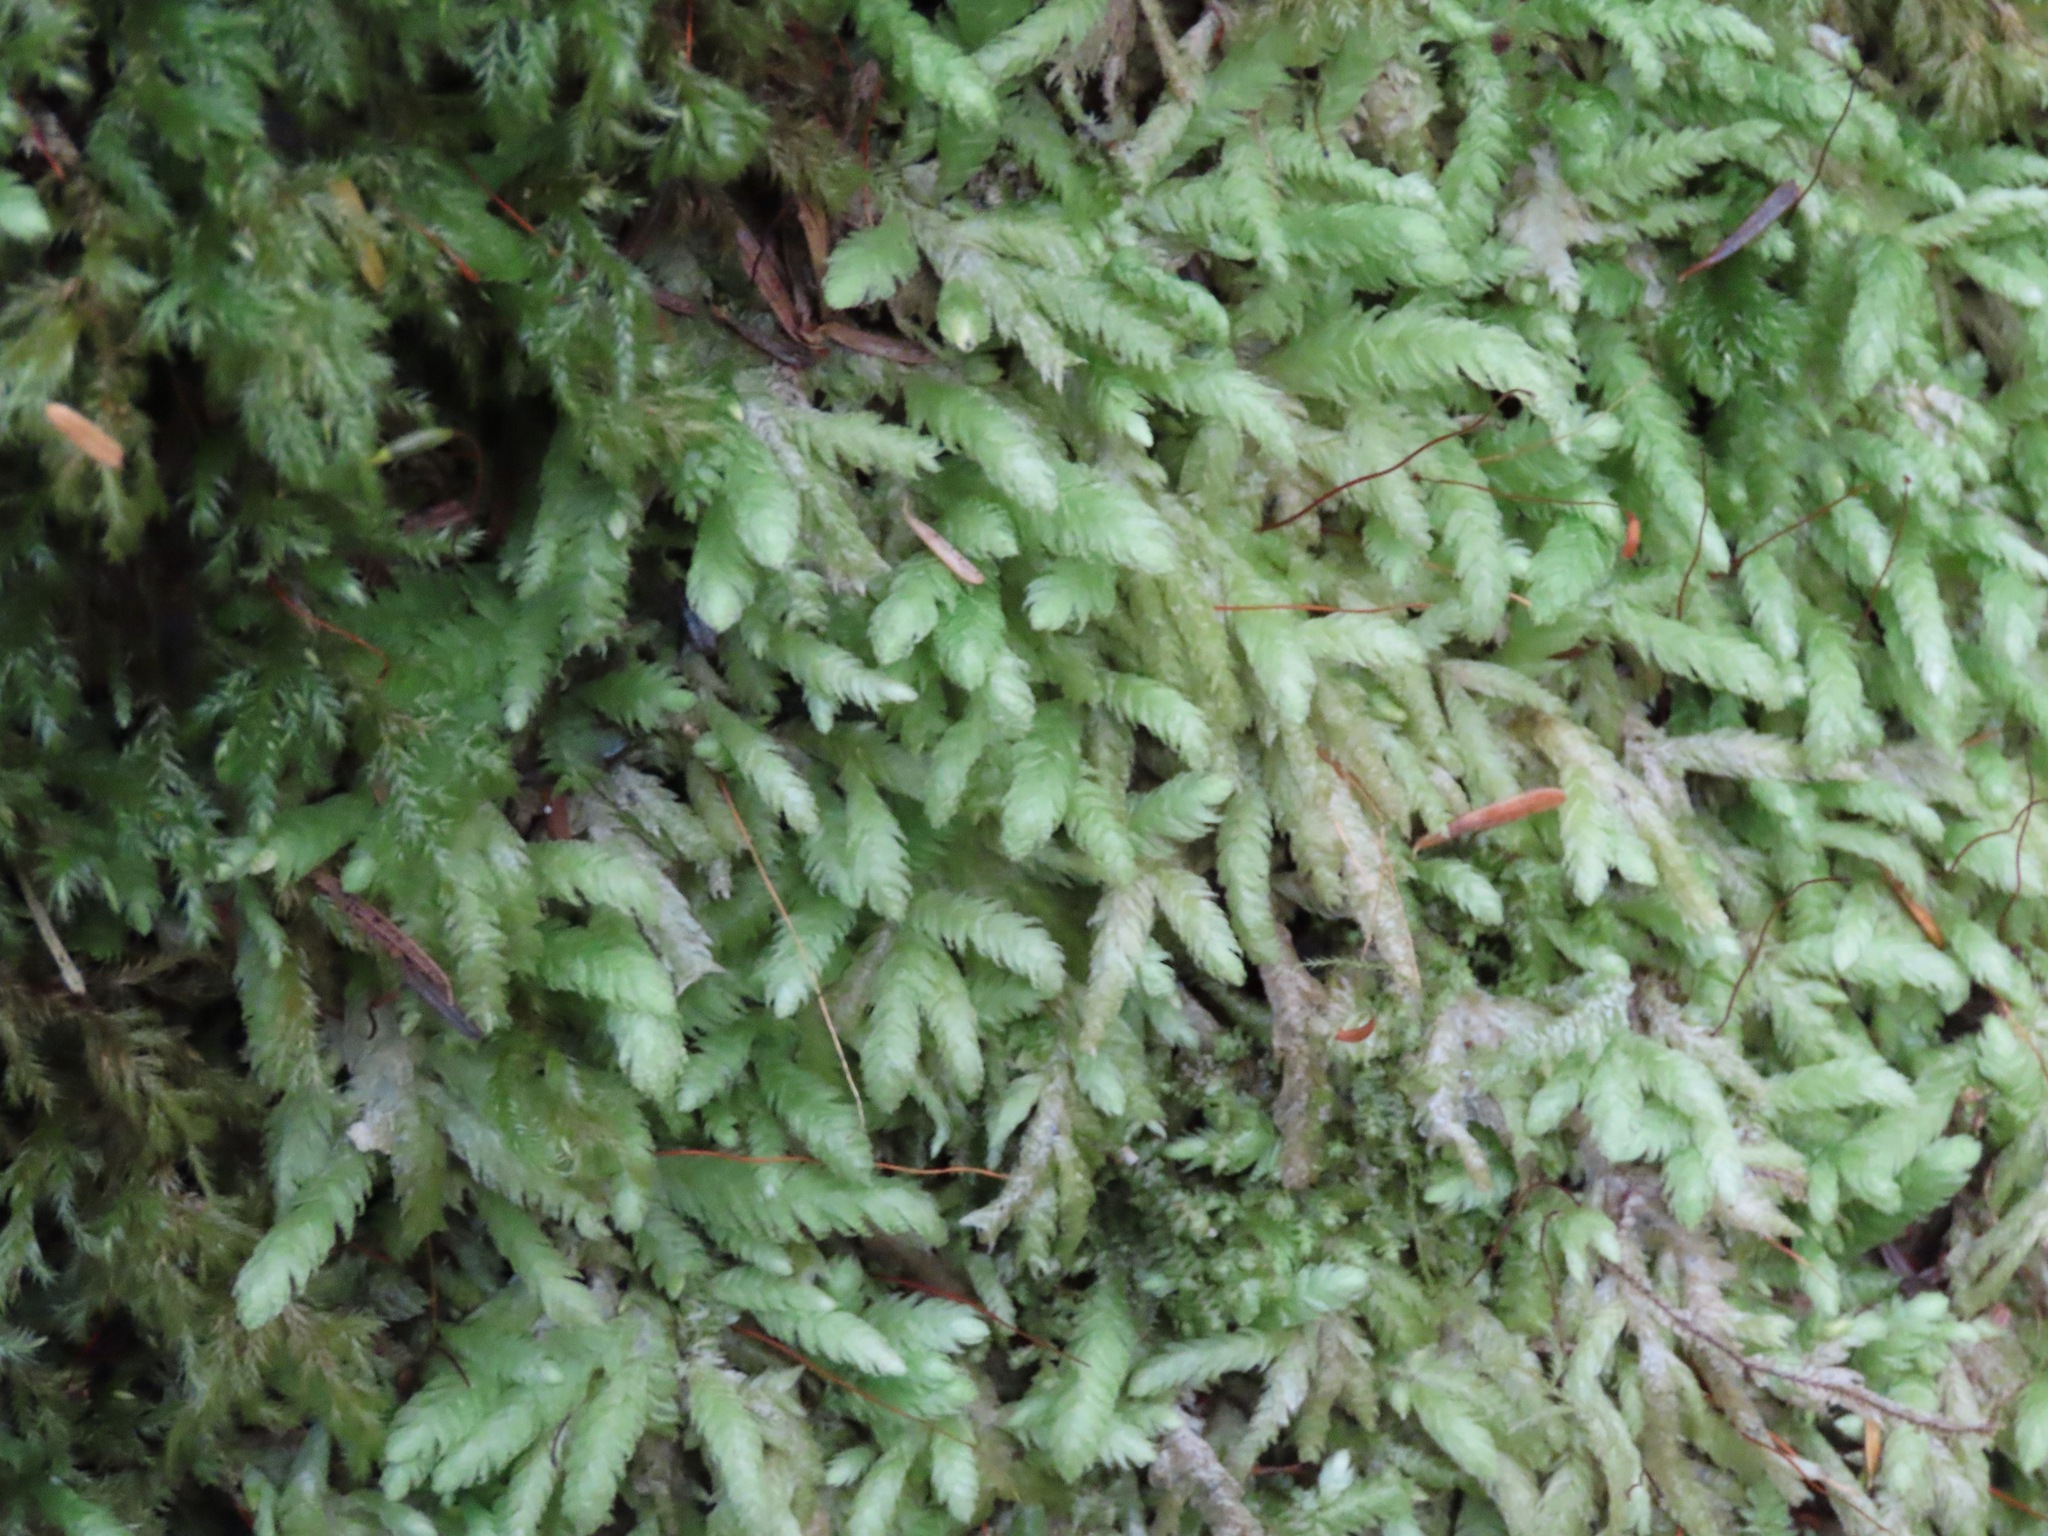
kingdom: Plantae
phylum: Bryophyta
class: Bryopsida
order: Hypnales
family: Plagiotheciaceae
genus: Plagiothecium
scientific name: Plagiothecium undulatum
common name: Waved silk-moss
